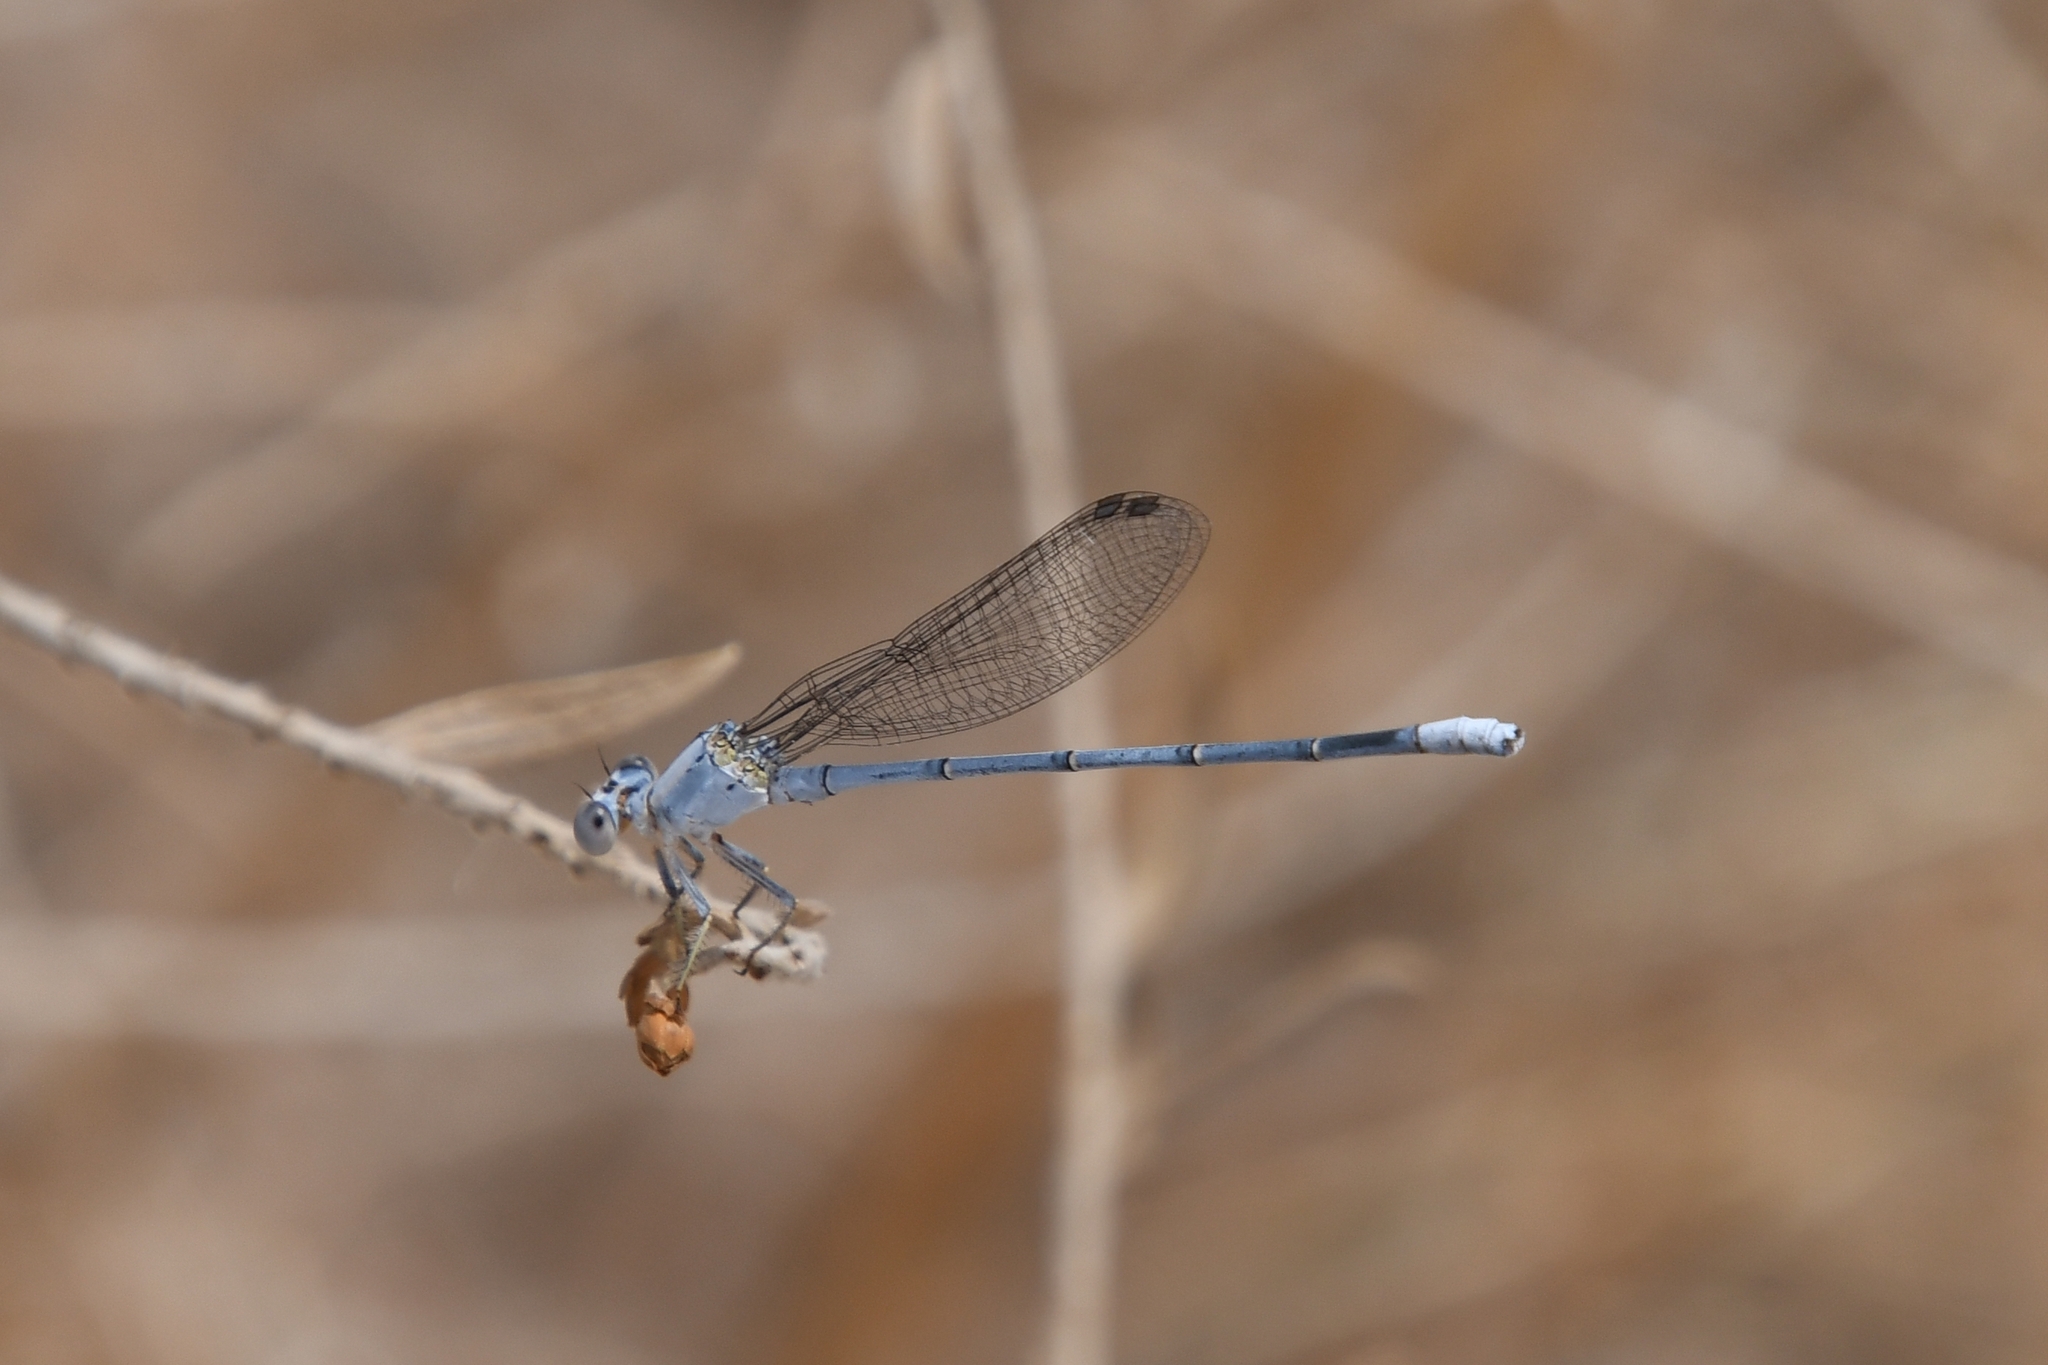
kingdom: Animalia
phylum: Arthropoda
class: Insecta
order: Odonata
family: Coenagrionidae
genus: Argia
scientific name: Argia moesta
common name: Powdered dancer
